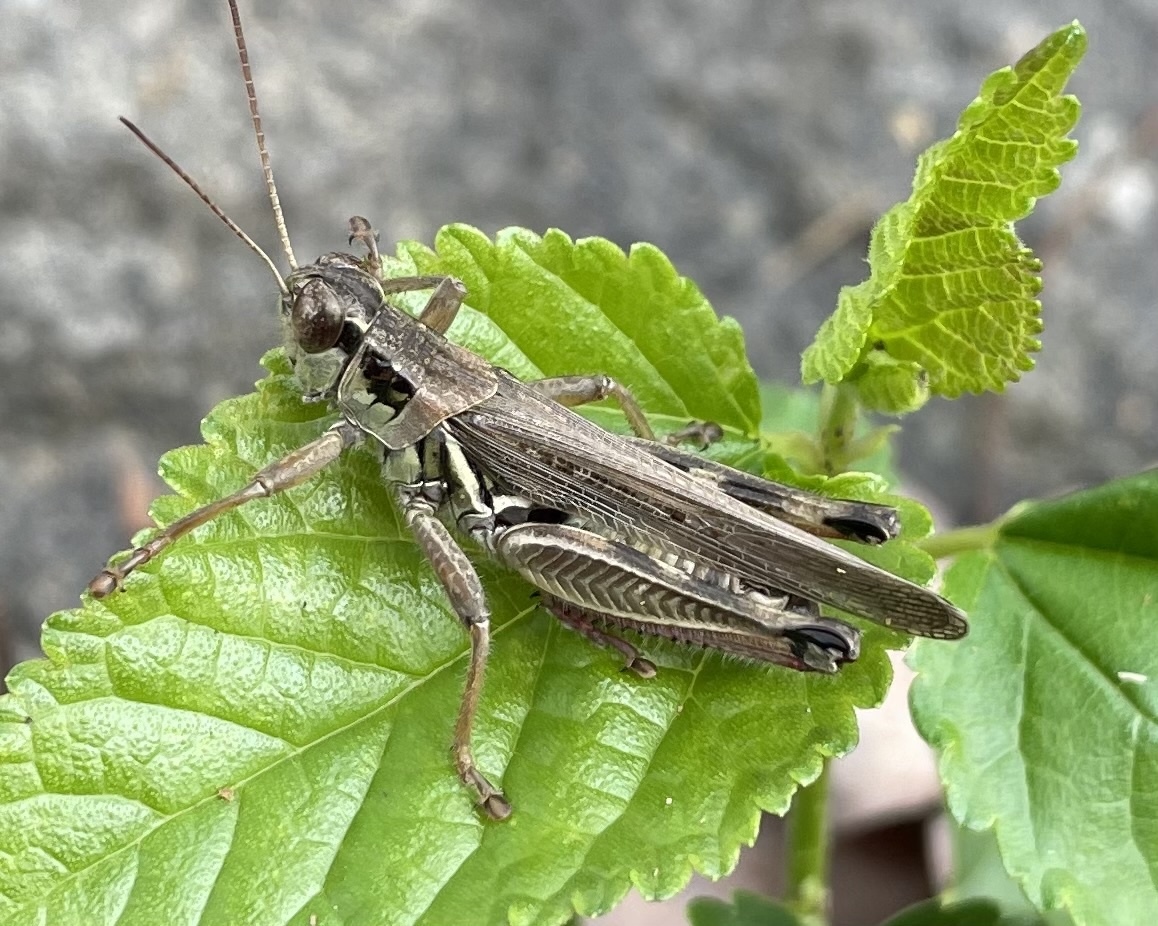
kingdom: Animalia
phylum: Arthropoda
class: Insecta
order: Orthoptera
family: Acrididae
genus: Melanoplus
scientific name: Melanoplus differentialis
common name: Differential grasshopper
